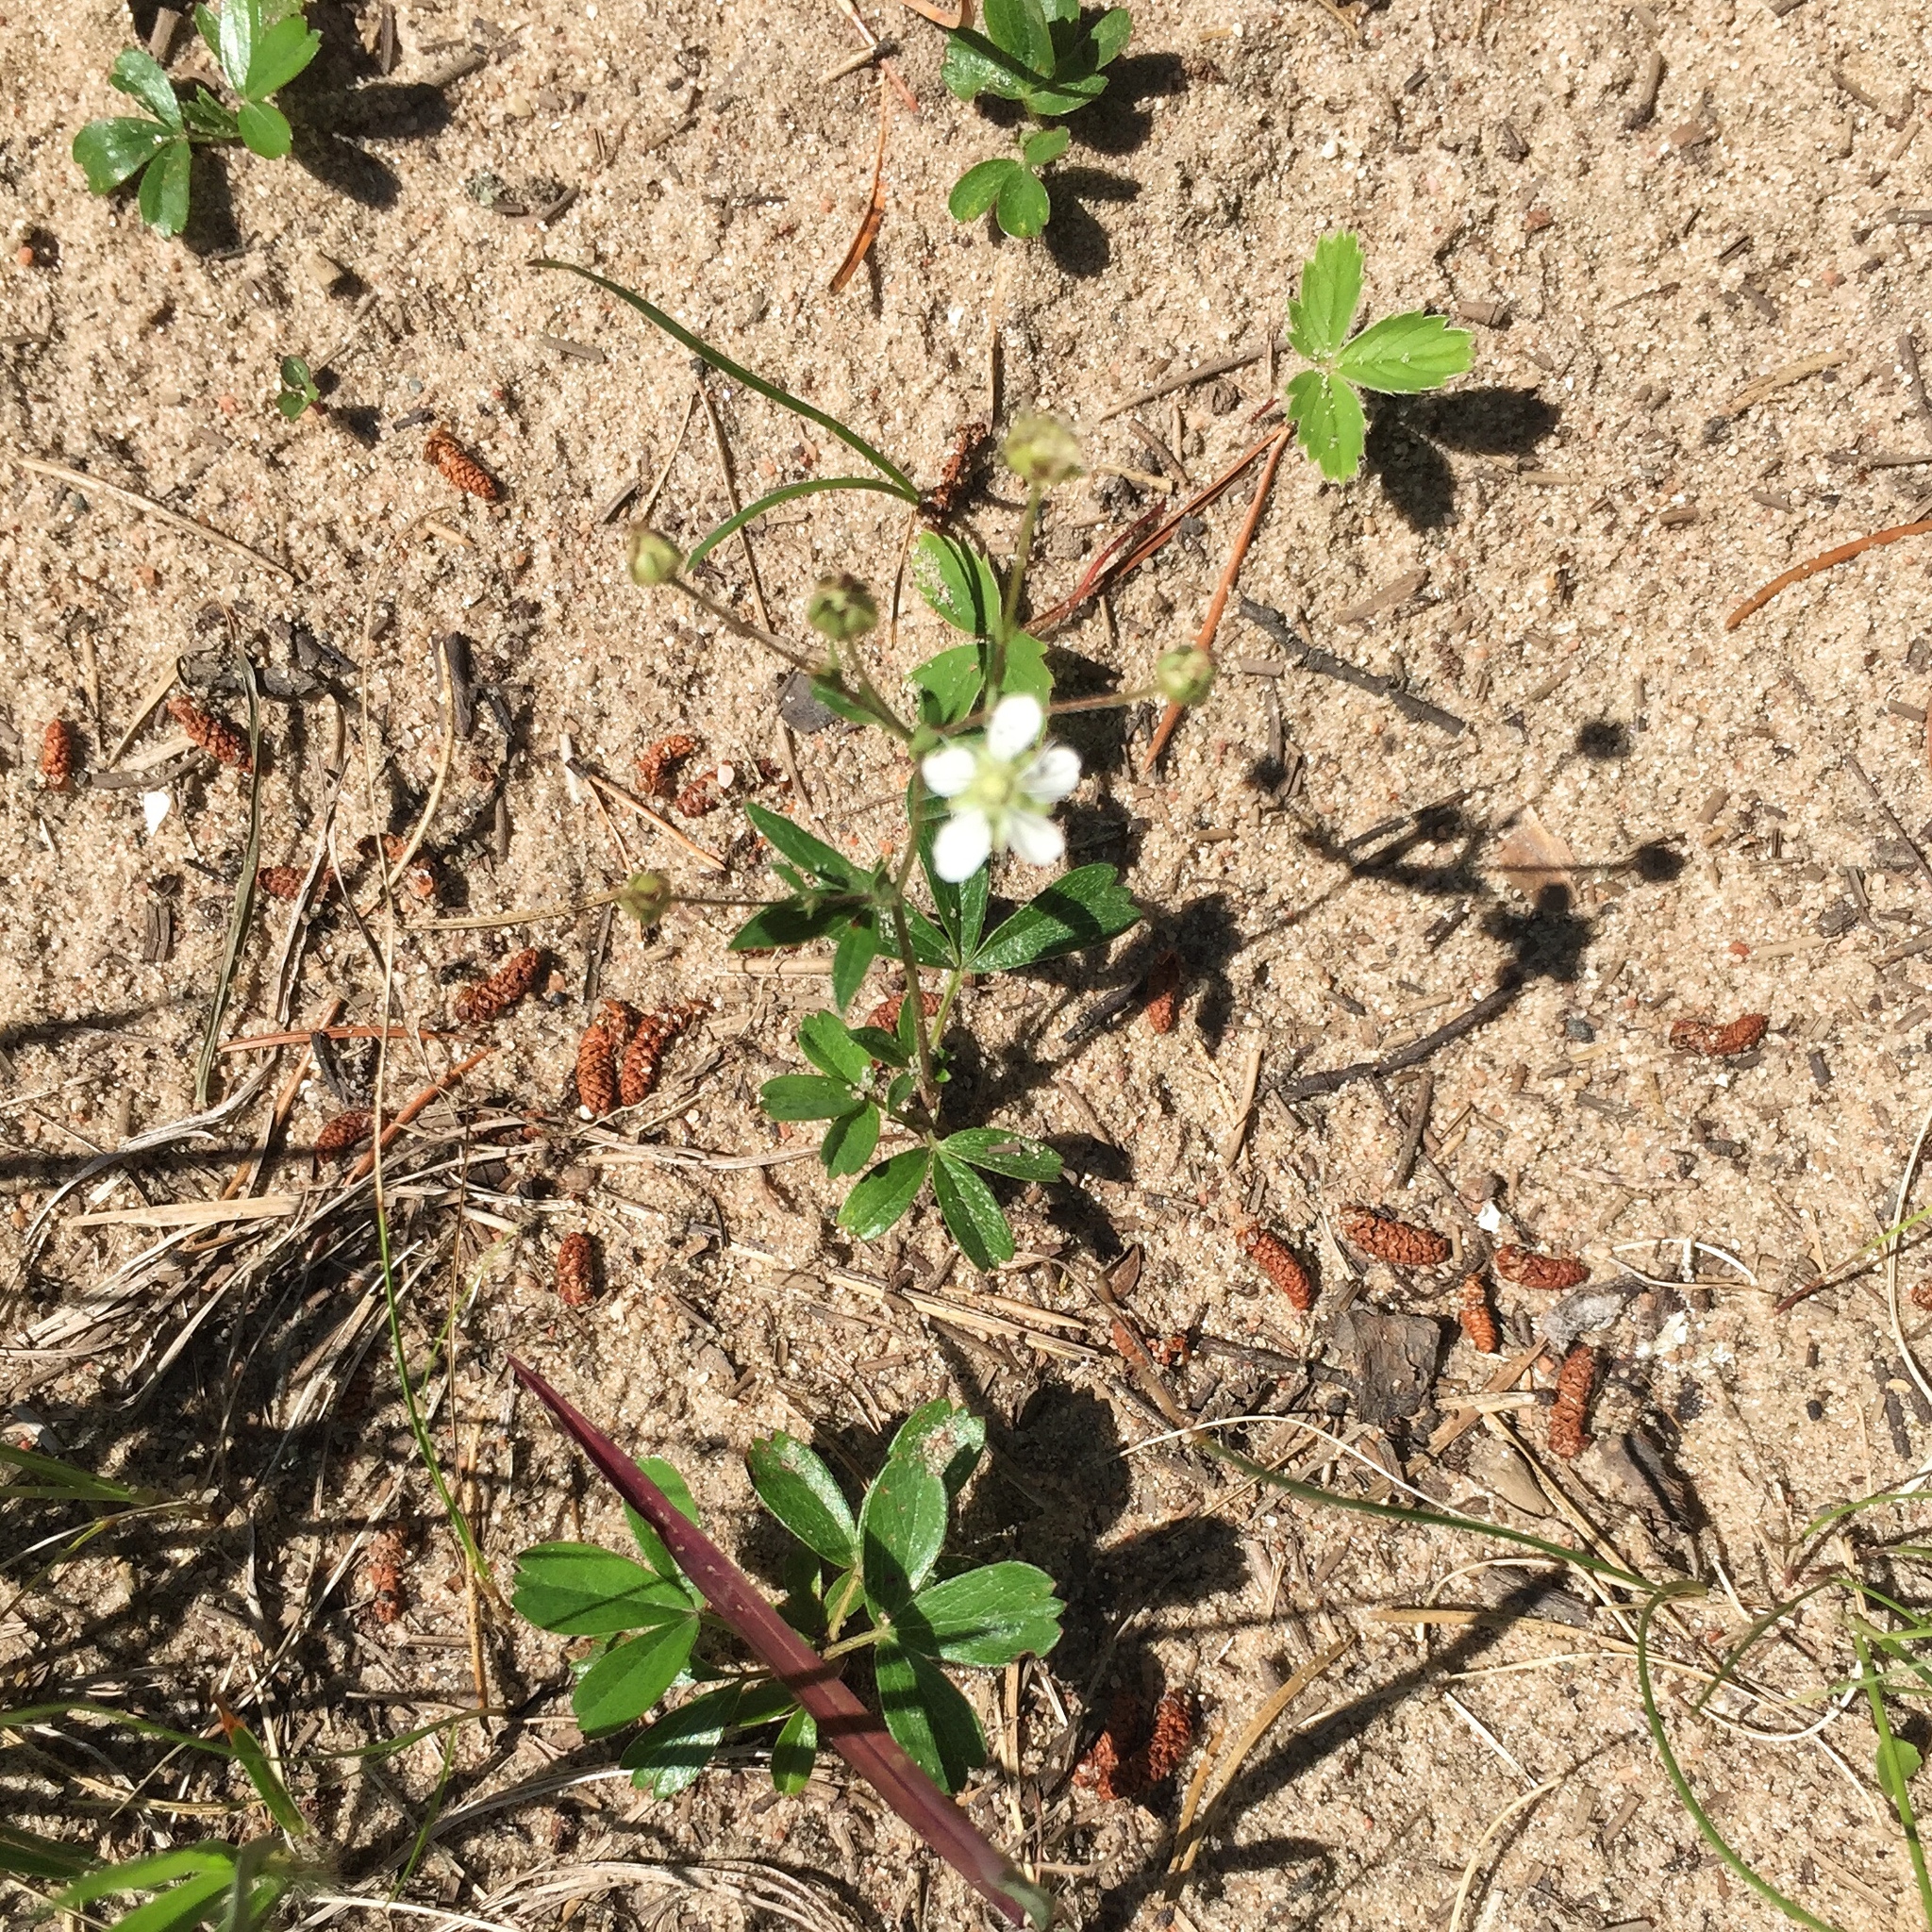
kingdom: Plantae
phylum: Tracheophyta
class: Magnoliopsida
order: Rosales
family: Rosaceae
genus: Sibbaldia
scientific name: Sibbaldia tridentata
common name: Three-toothed cinquefoil
